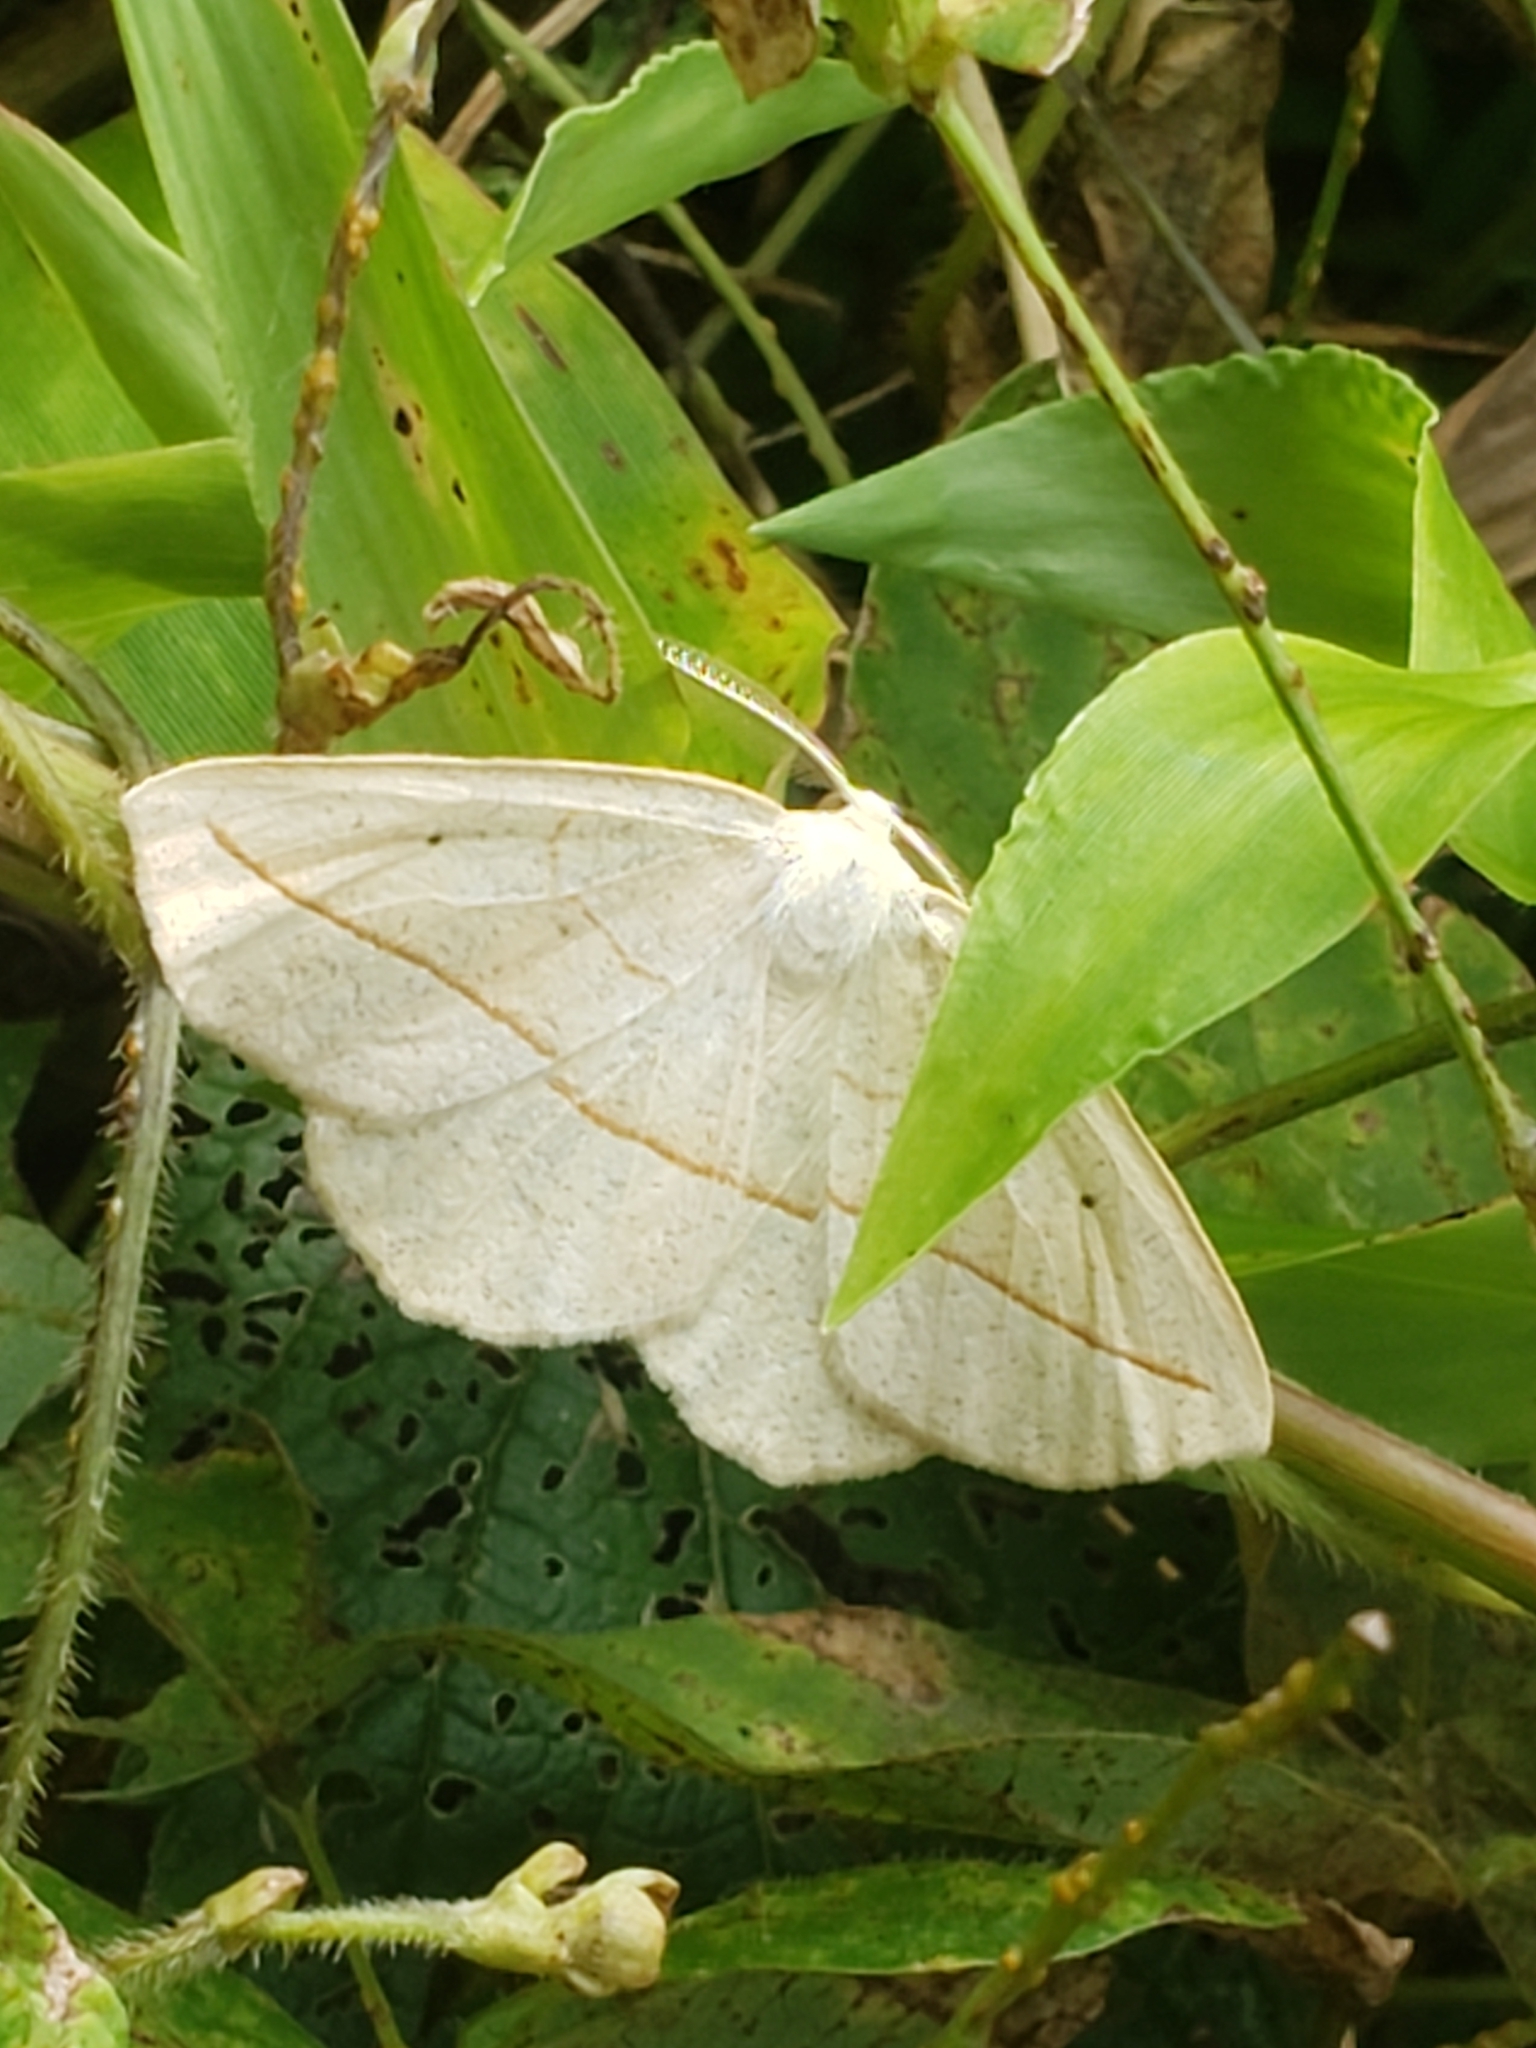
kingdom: Animalia
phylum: Arthropoda
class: Insecta
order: Lepidoptera
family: Geometridae
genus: Eusarca
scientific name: Eusarca confusaria
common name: Confused eusarca
